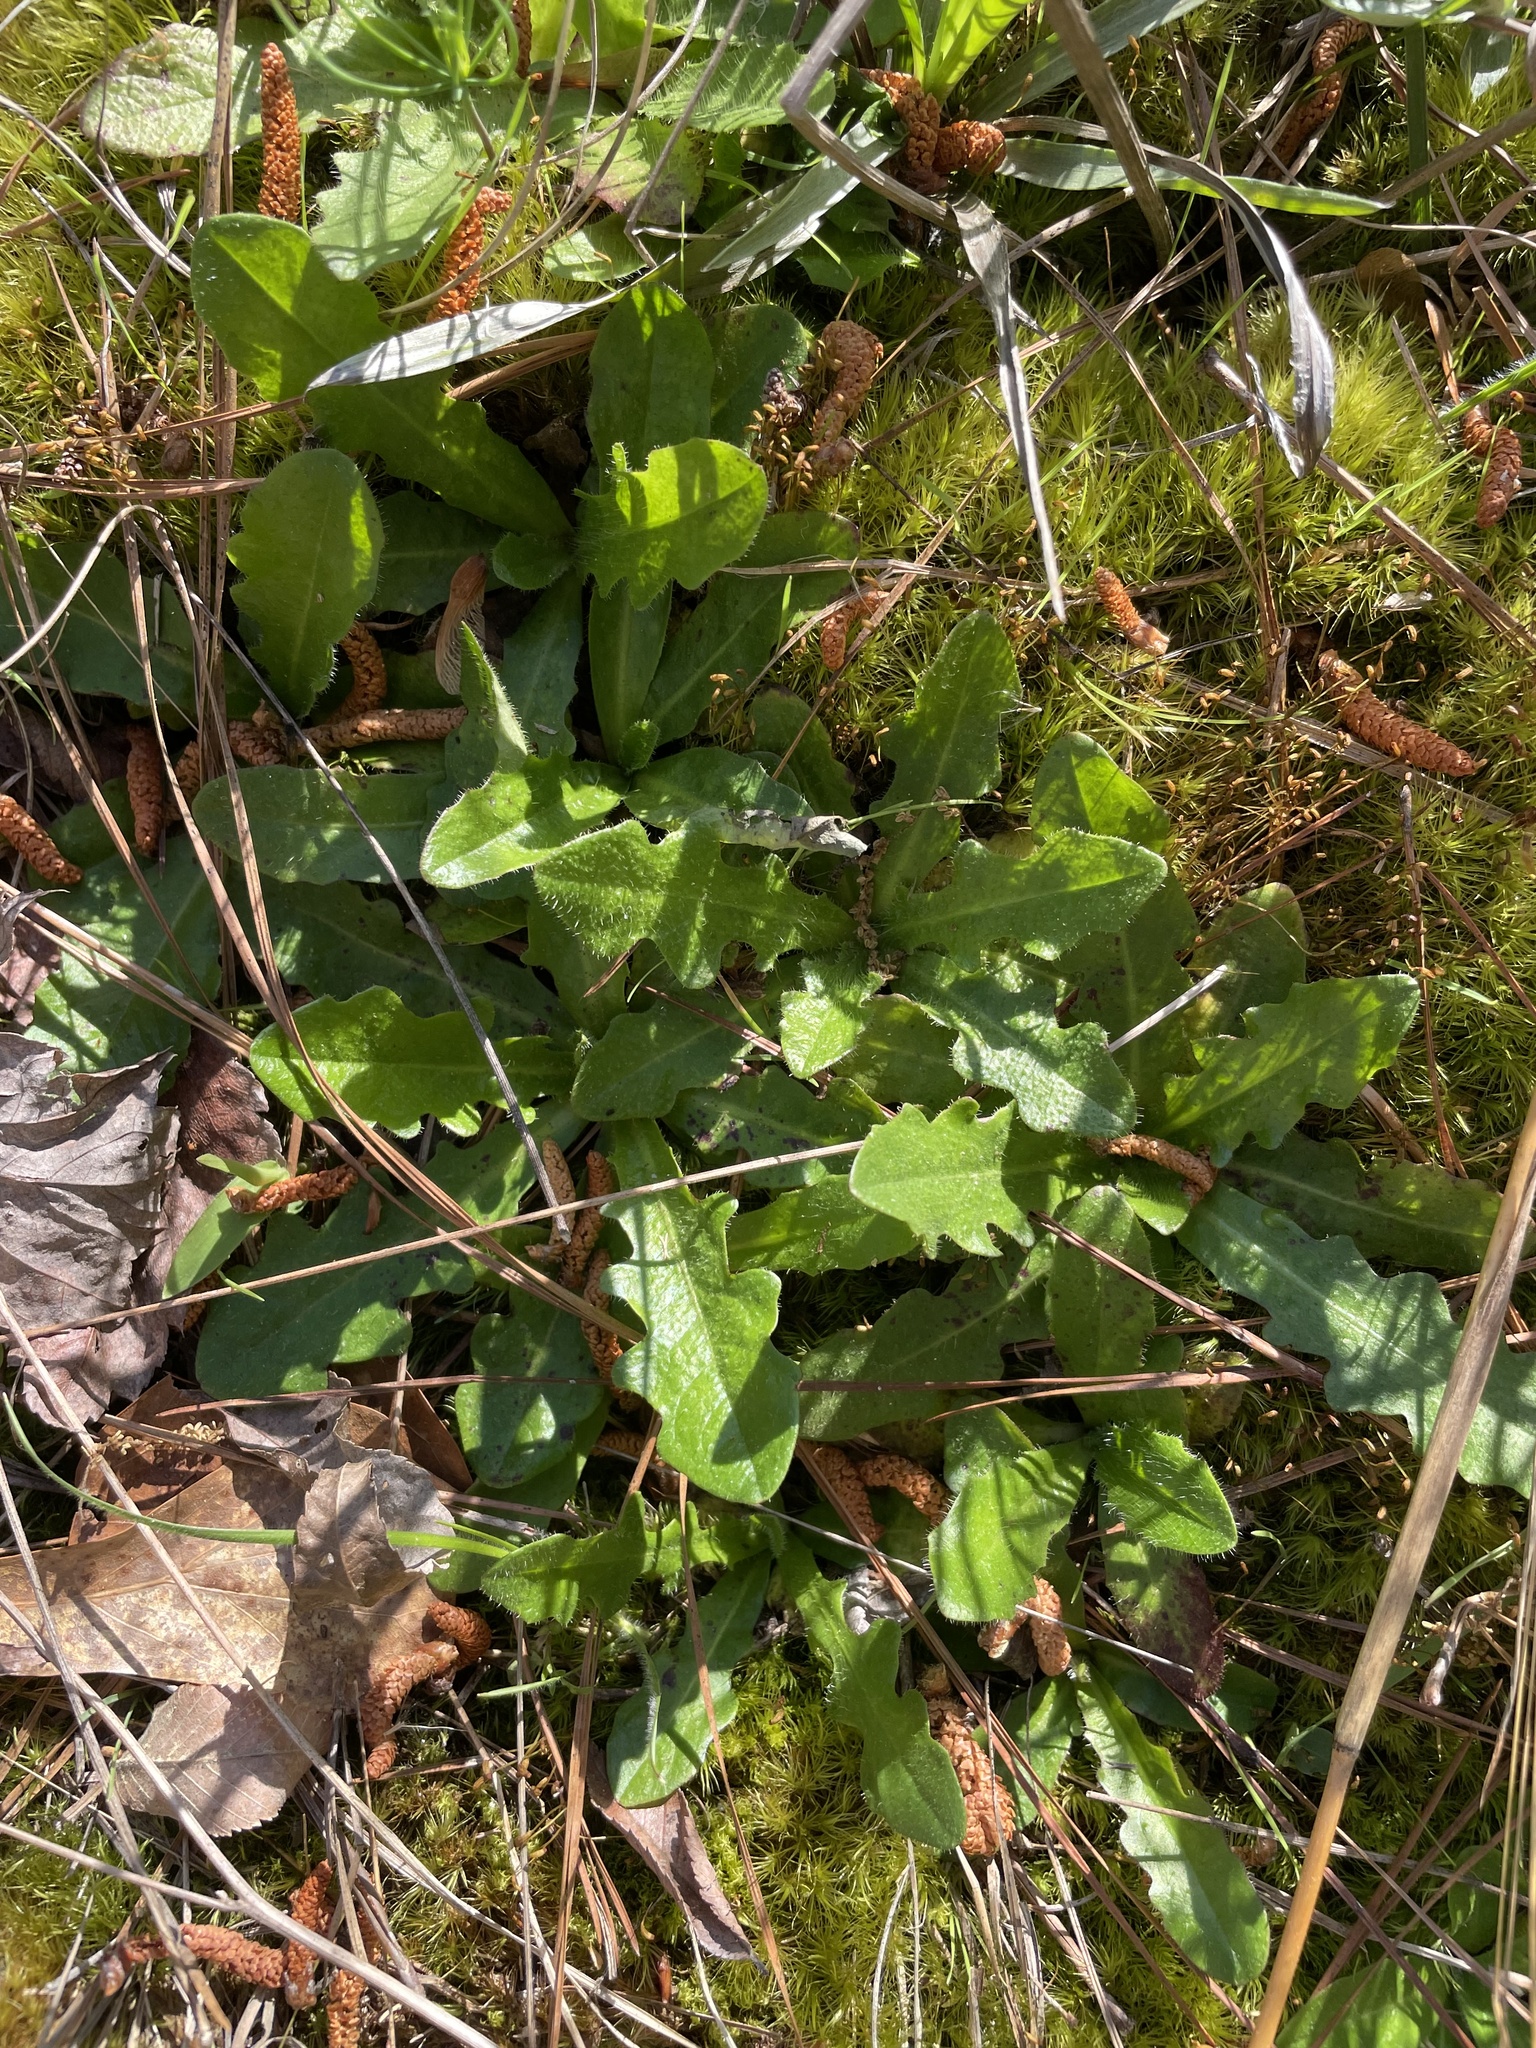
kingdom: Plantae
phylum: Tracheophyta
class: Magnoliopsida
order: Asterales
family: Asteraceae
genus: Hypochaeris
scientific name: Hypochaeris radicata
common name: Flatweed
